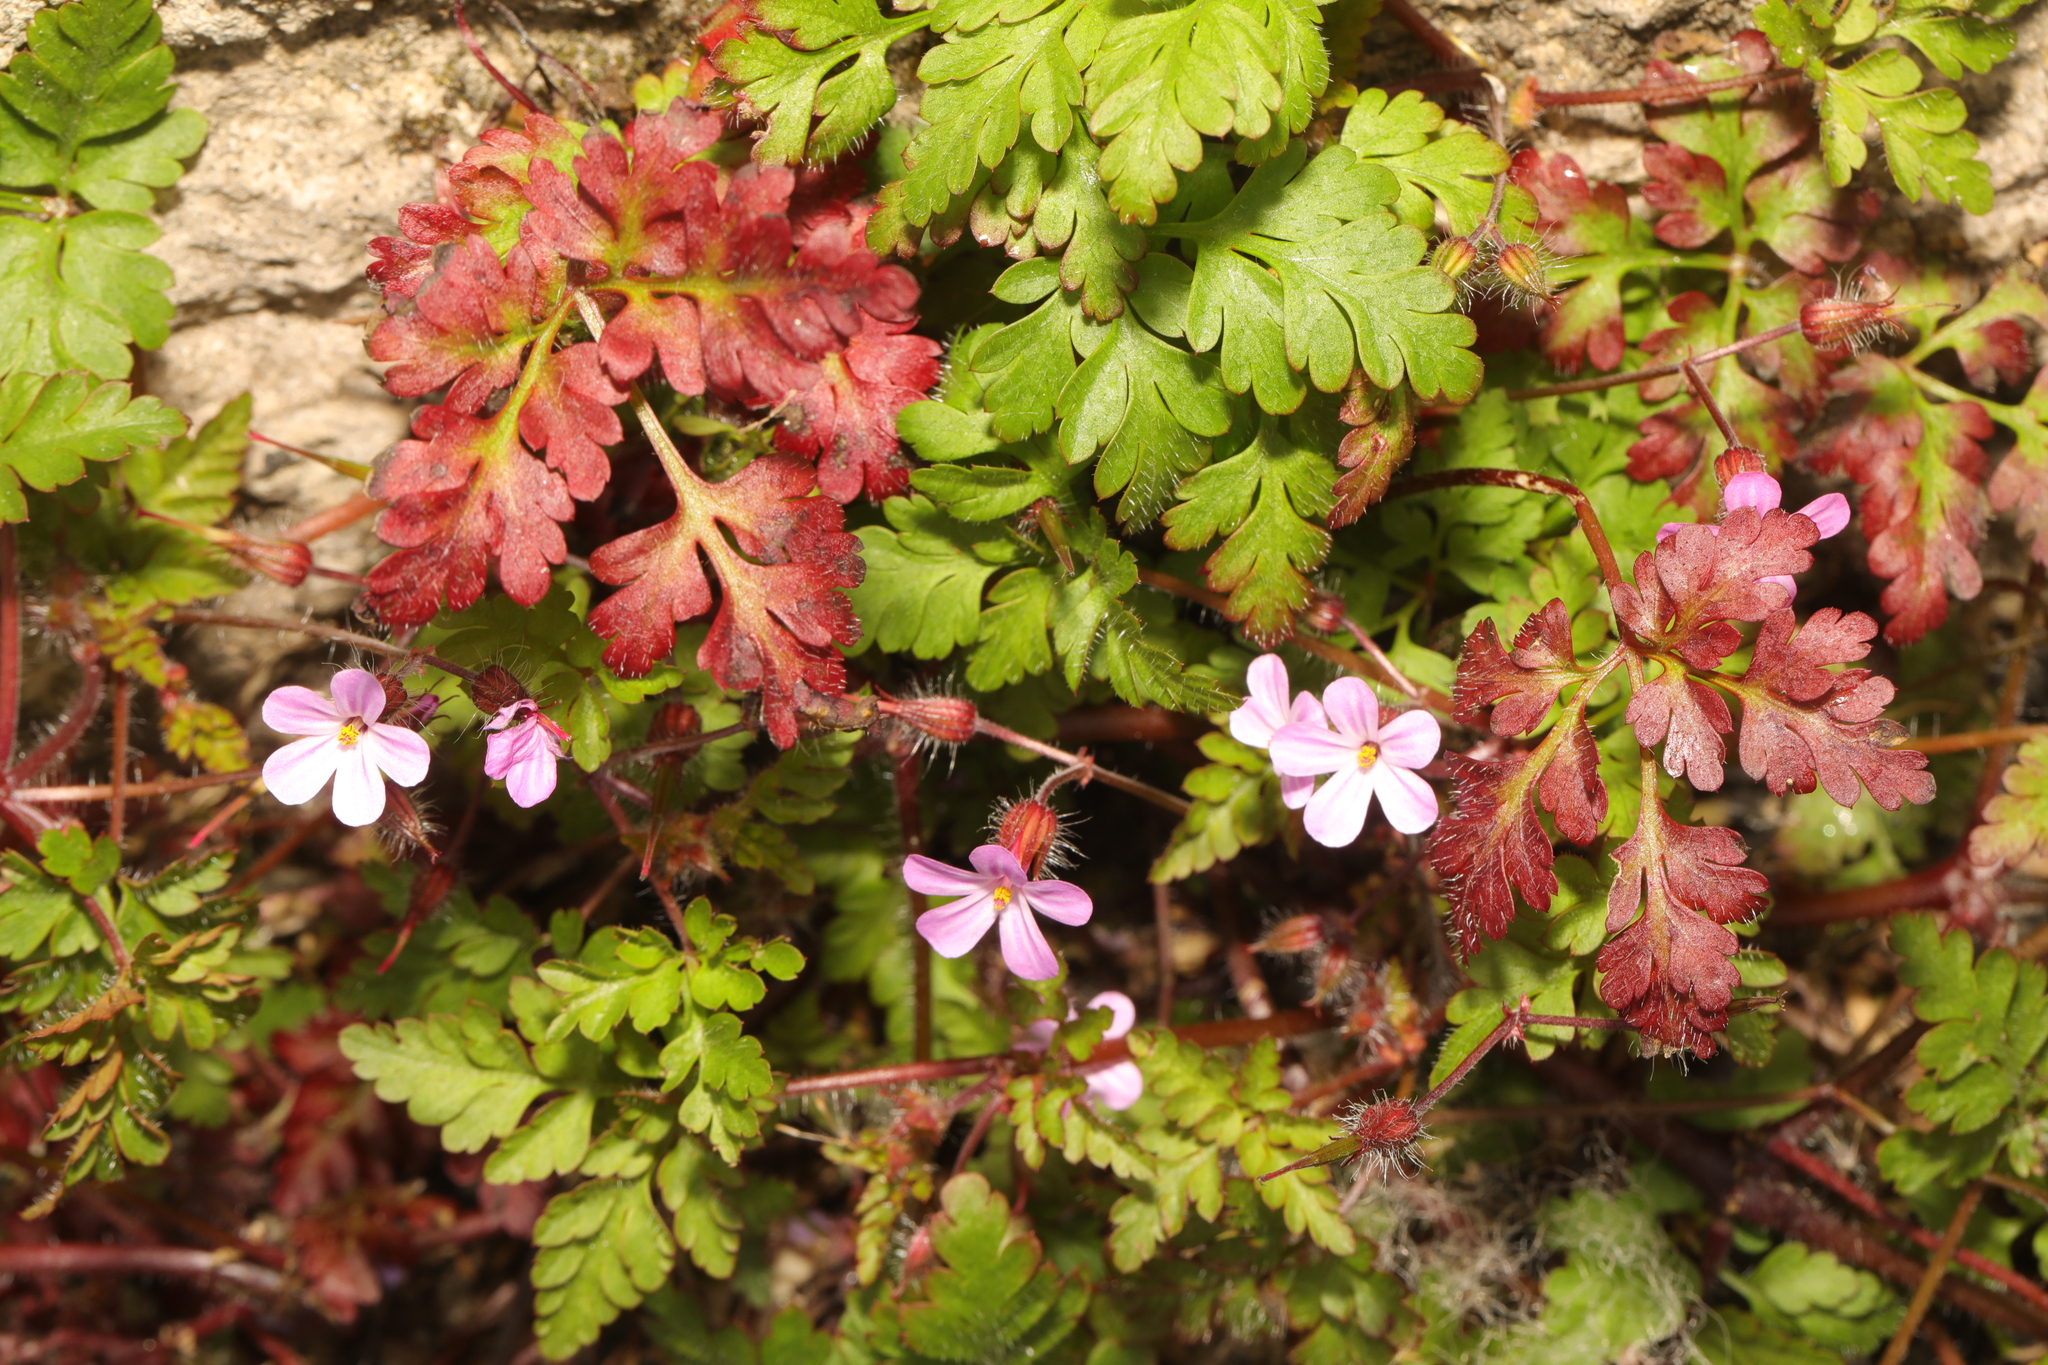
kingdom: Plantae
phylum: Tracheophyta
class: Magnoliopsida
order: Geraniales
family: Geraniaceae
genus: Geranium
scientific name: Geranium robertianum
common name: Herb-robert
